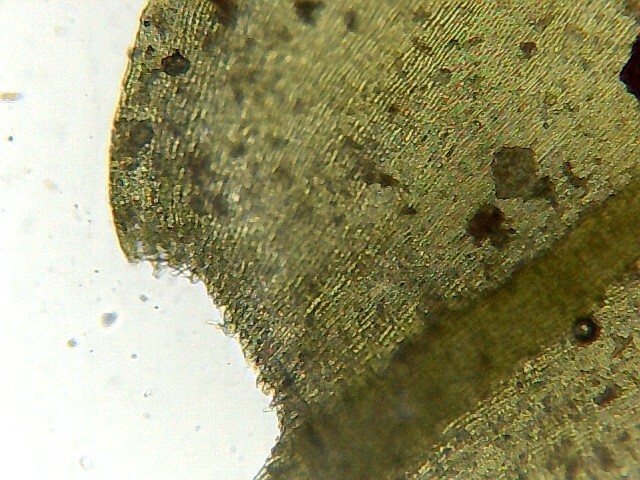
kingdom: Plantae
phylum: Bryophyta
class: Bryopsida
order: Hypnales
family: Brachytheciaceae
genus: Rhynchostegium
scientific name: Rhynchostegium riparioides
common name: Platyhypnidium moss
